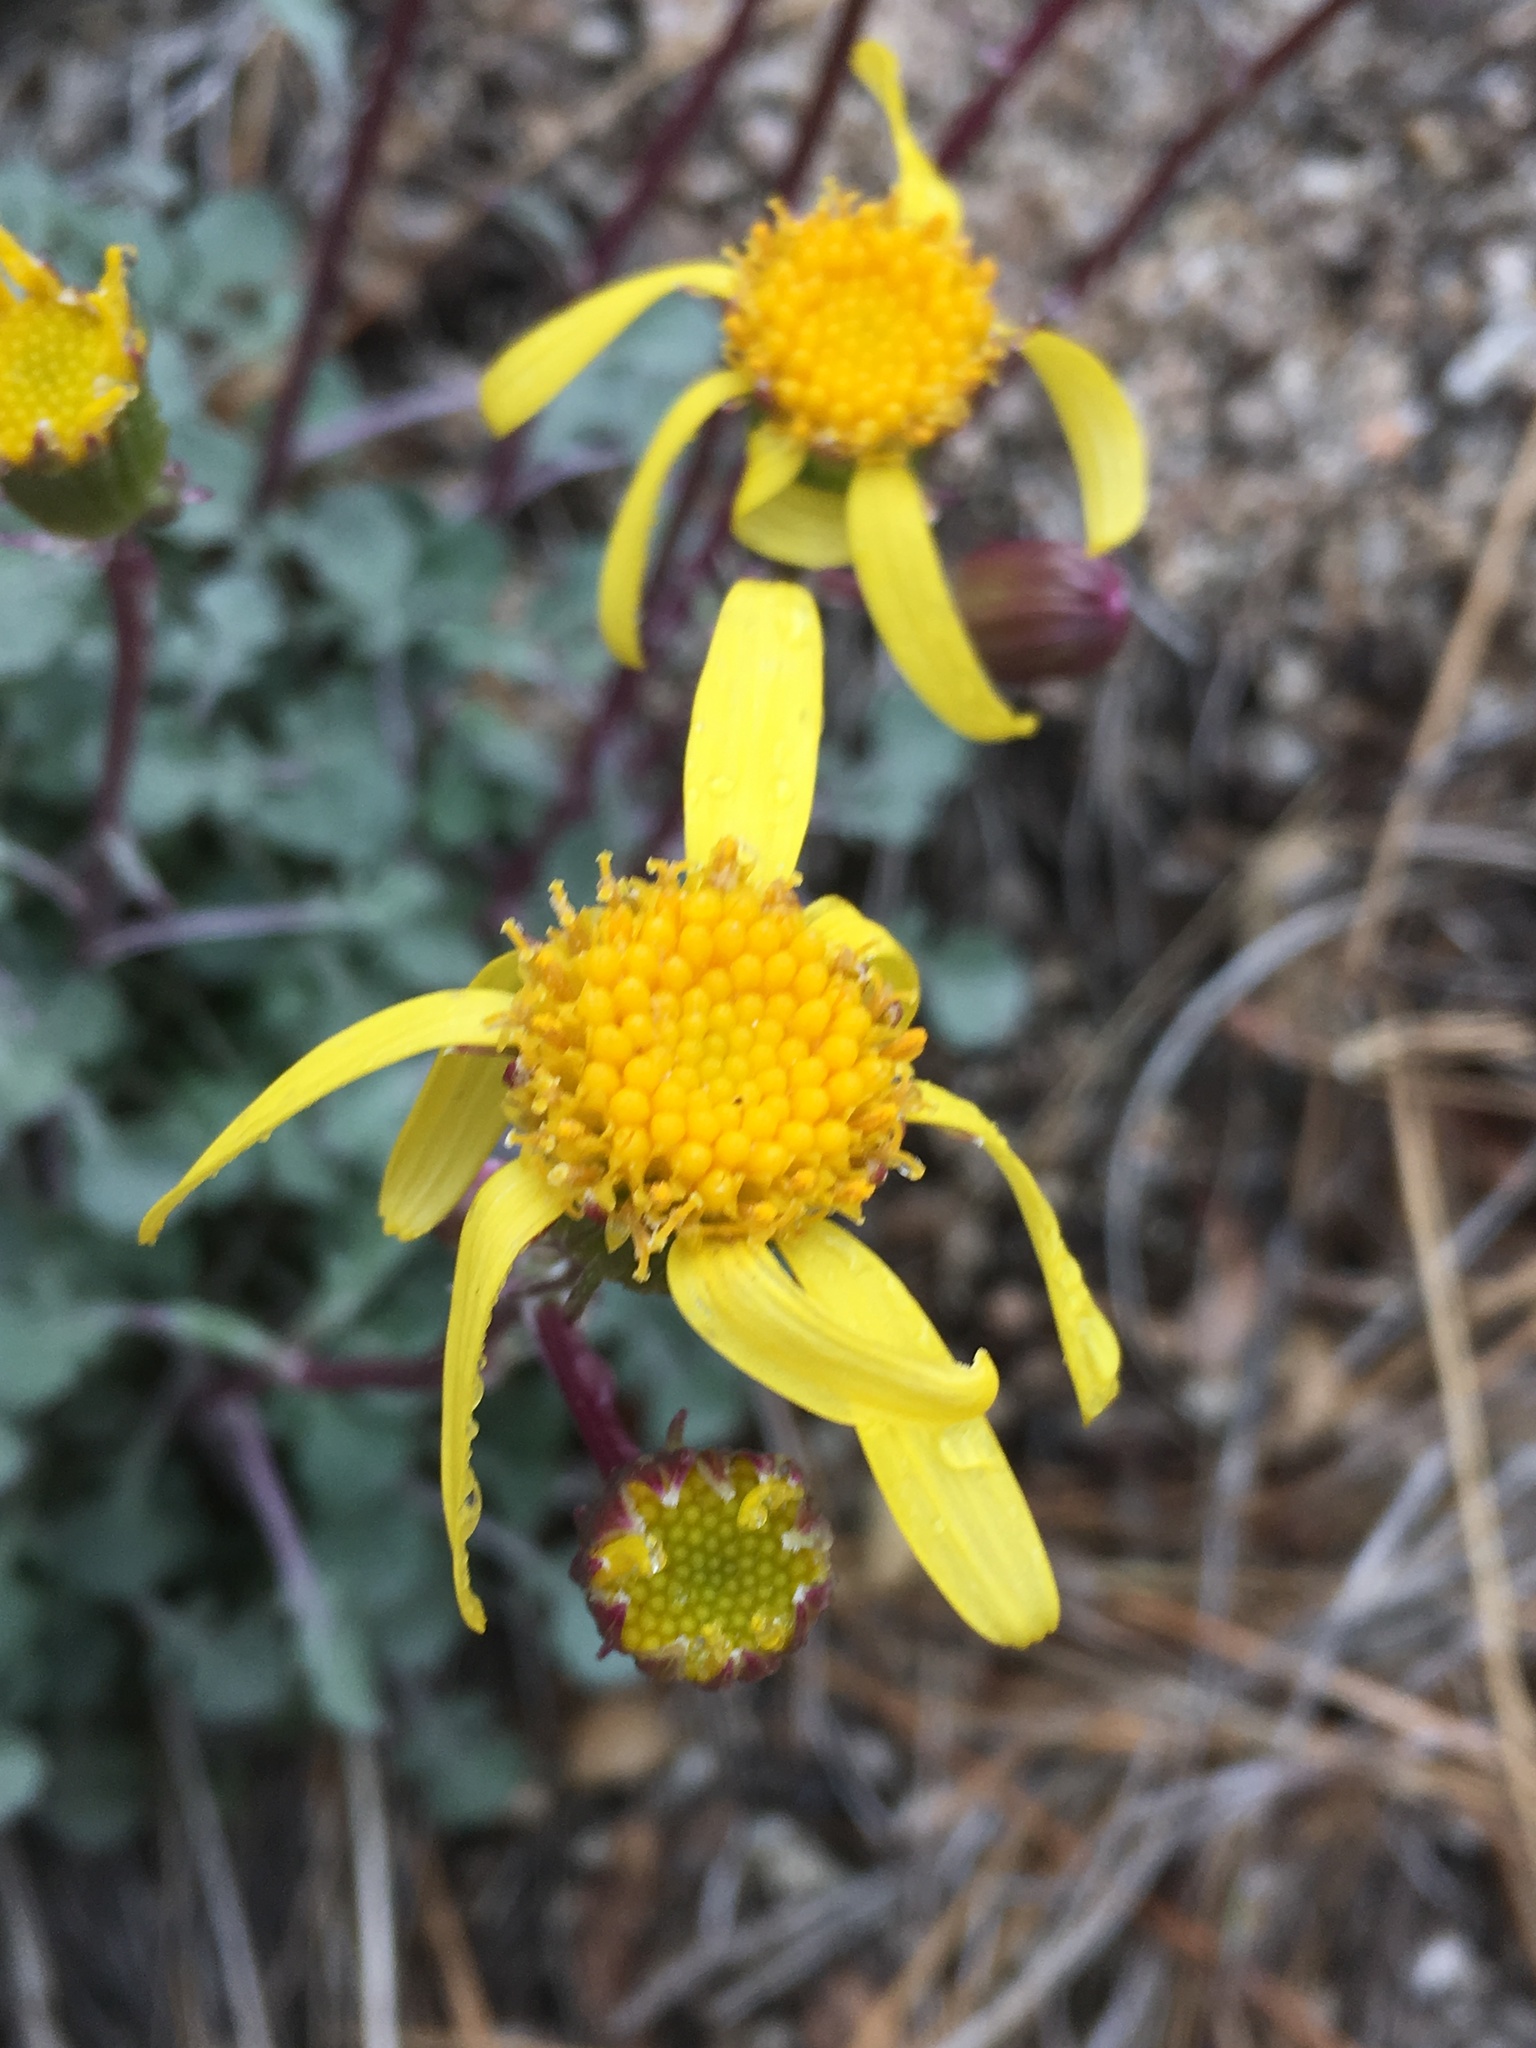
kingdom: Plantae
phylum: Tracheophyta
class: Magnoliopsida
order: Asterales
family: Asteraceae
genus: Packera
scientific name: Packera ionophylla
